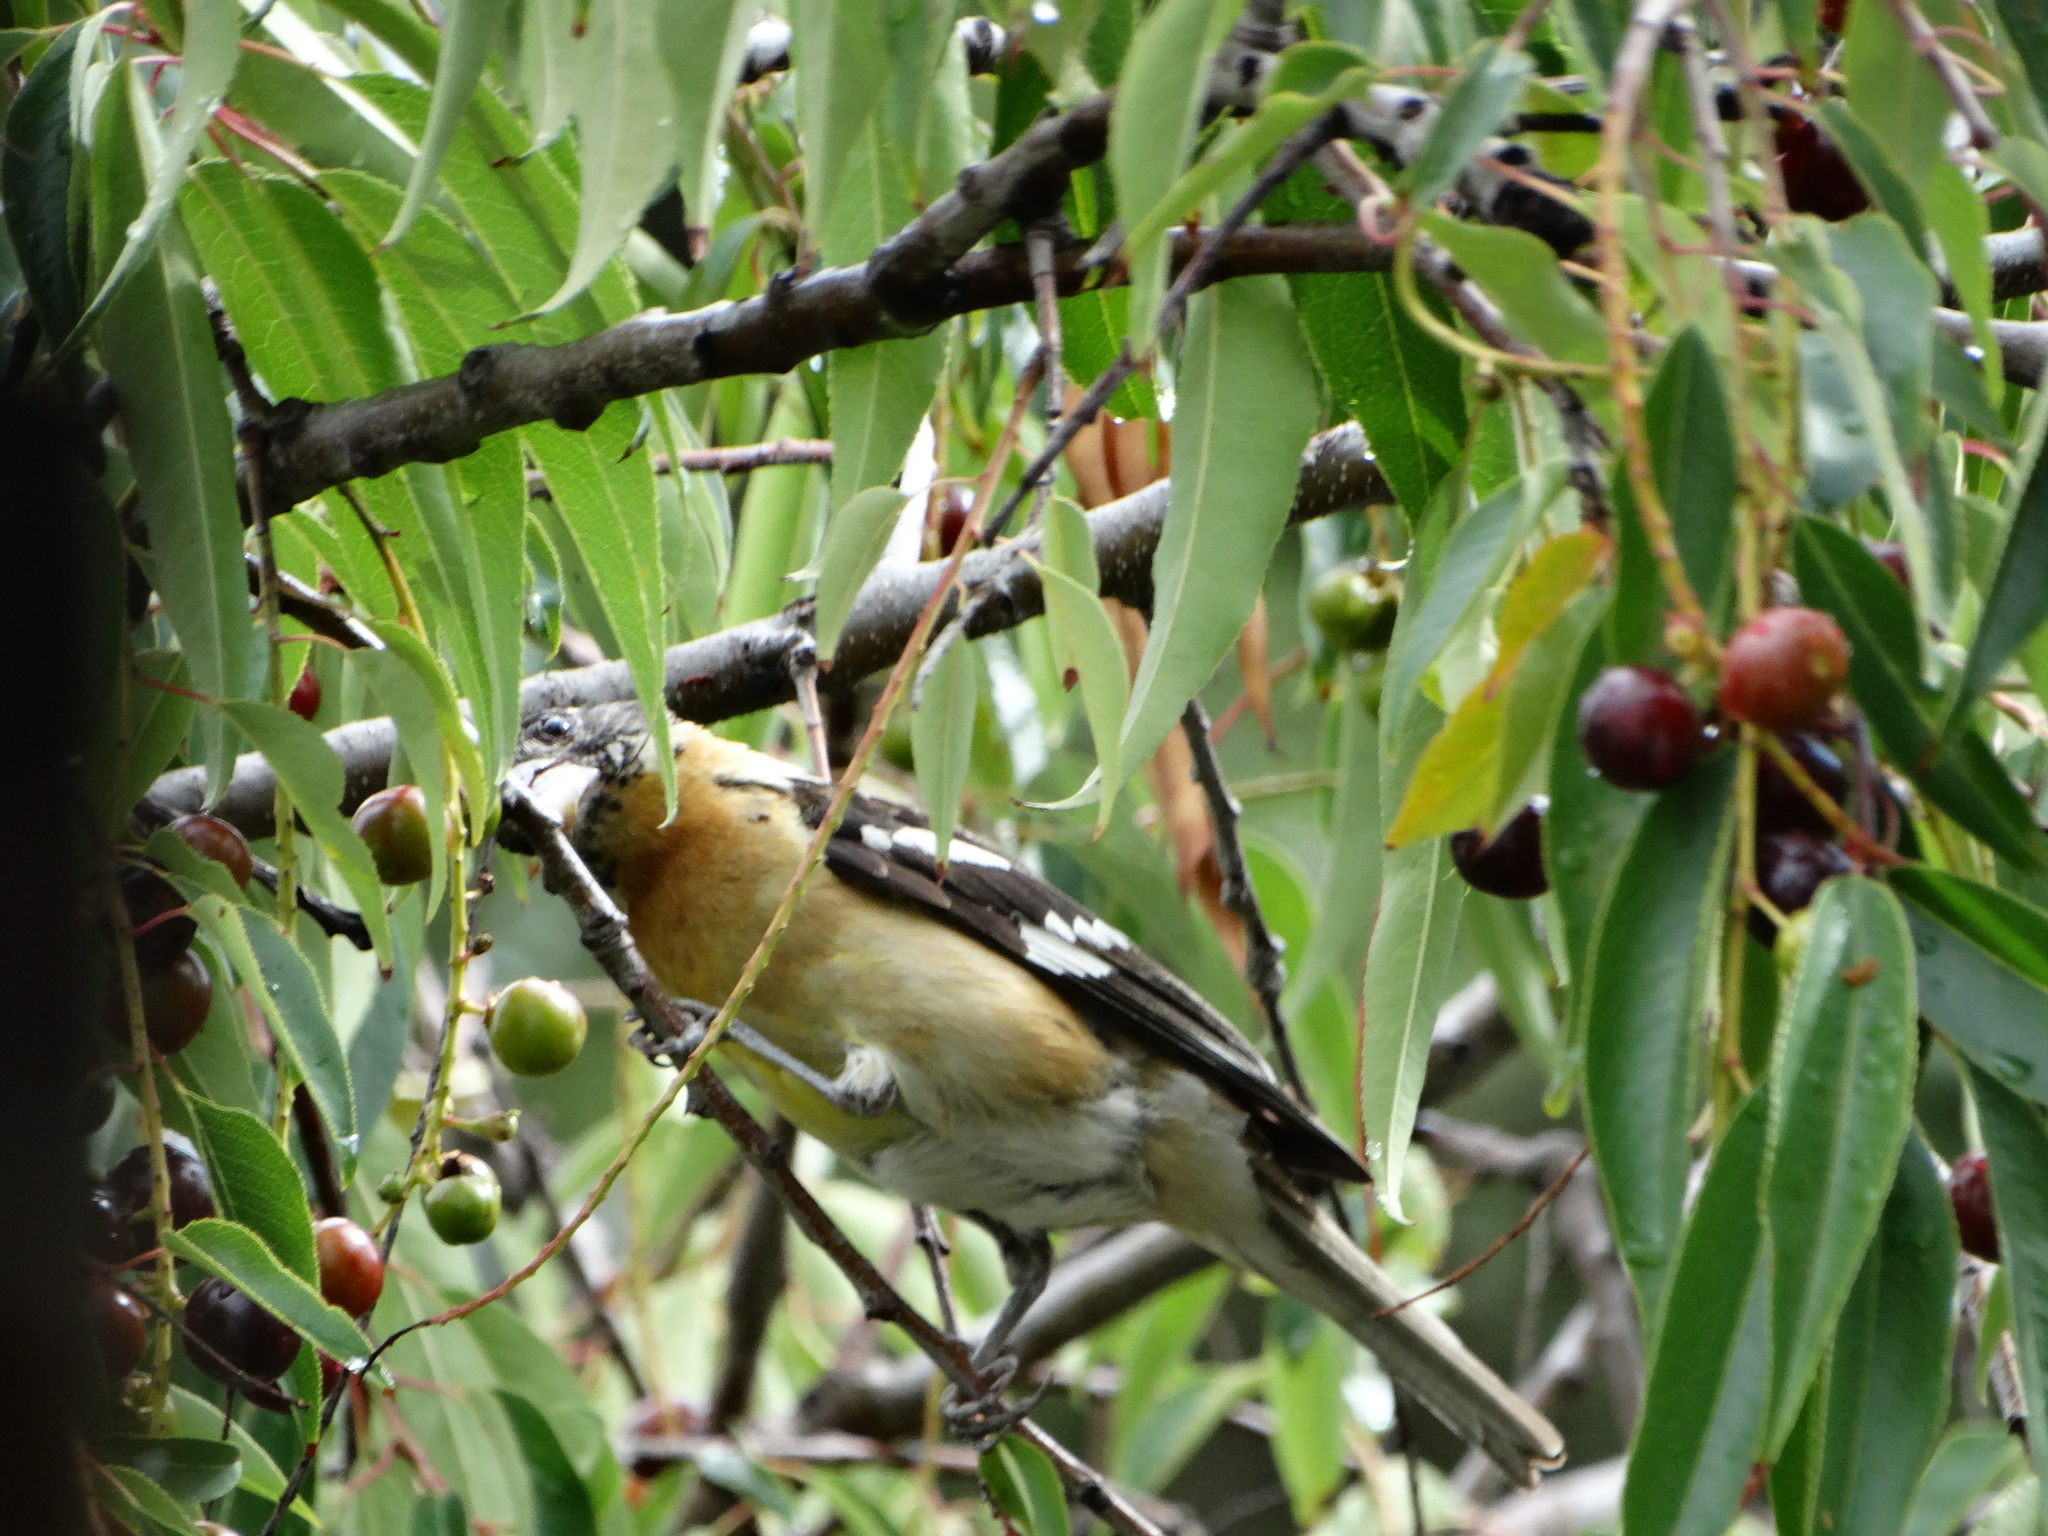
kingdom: Animalia
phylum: Chordata
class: Aves
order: Passeriformes
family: Cardinalidae
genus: Pheucticus
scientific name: Pheucticus melanocephalus
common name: Black-headed grosbeak
